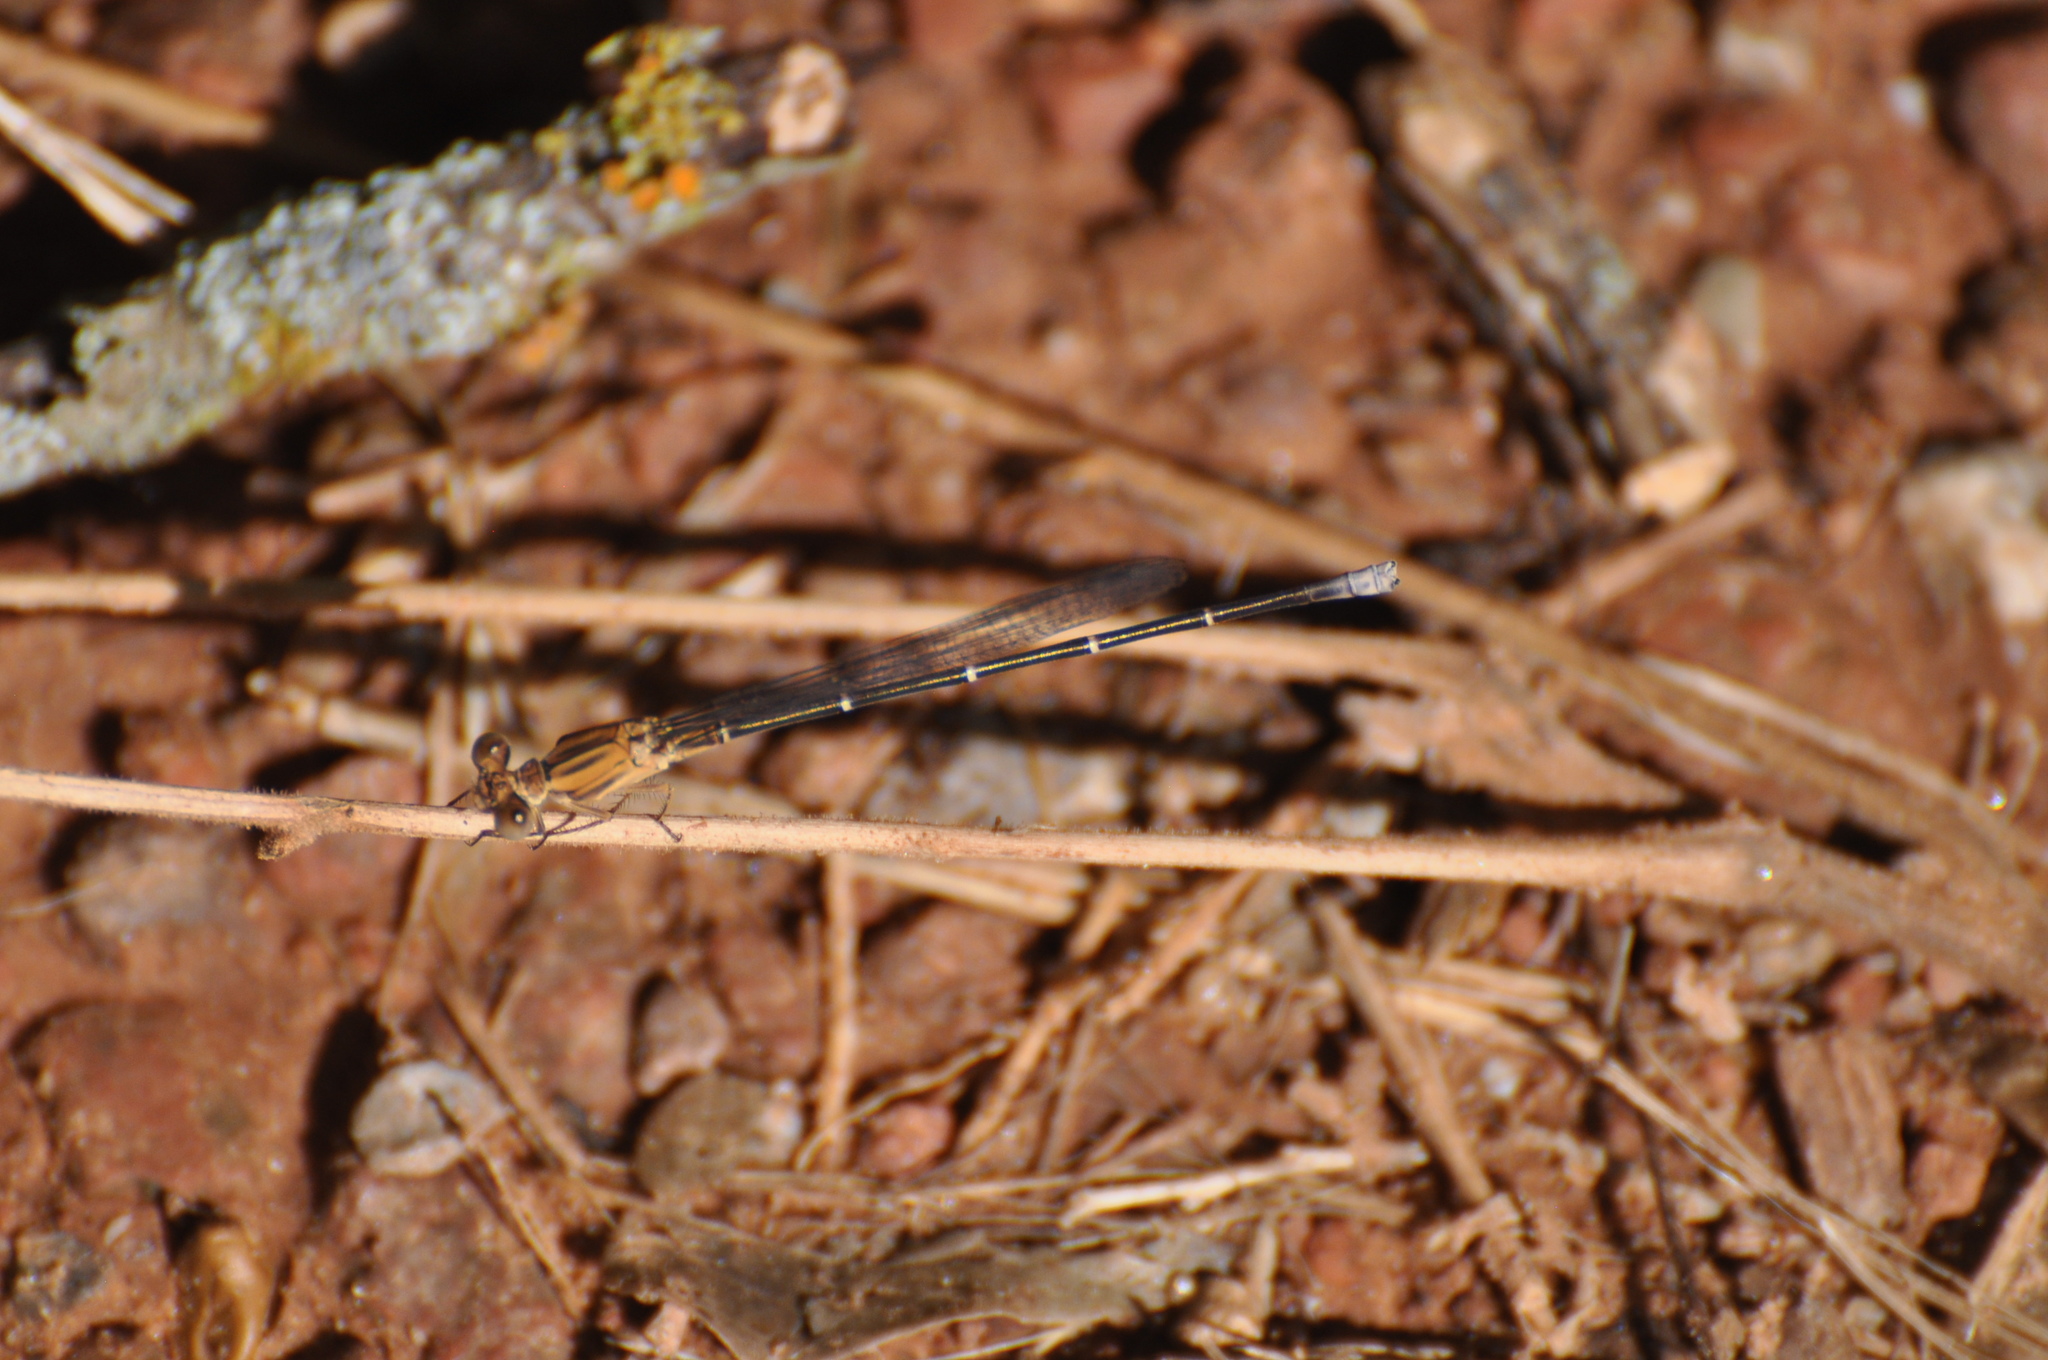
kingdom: Animalia
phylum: Arthropoda
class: Insecta
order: Odonata
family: Coenagrionidae
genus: Argia
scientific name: Argia moesta
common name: Powdered dancer
